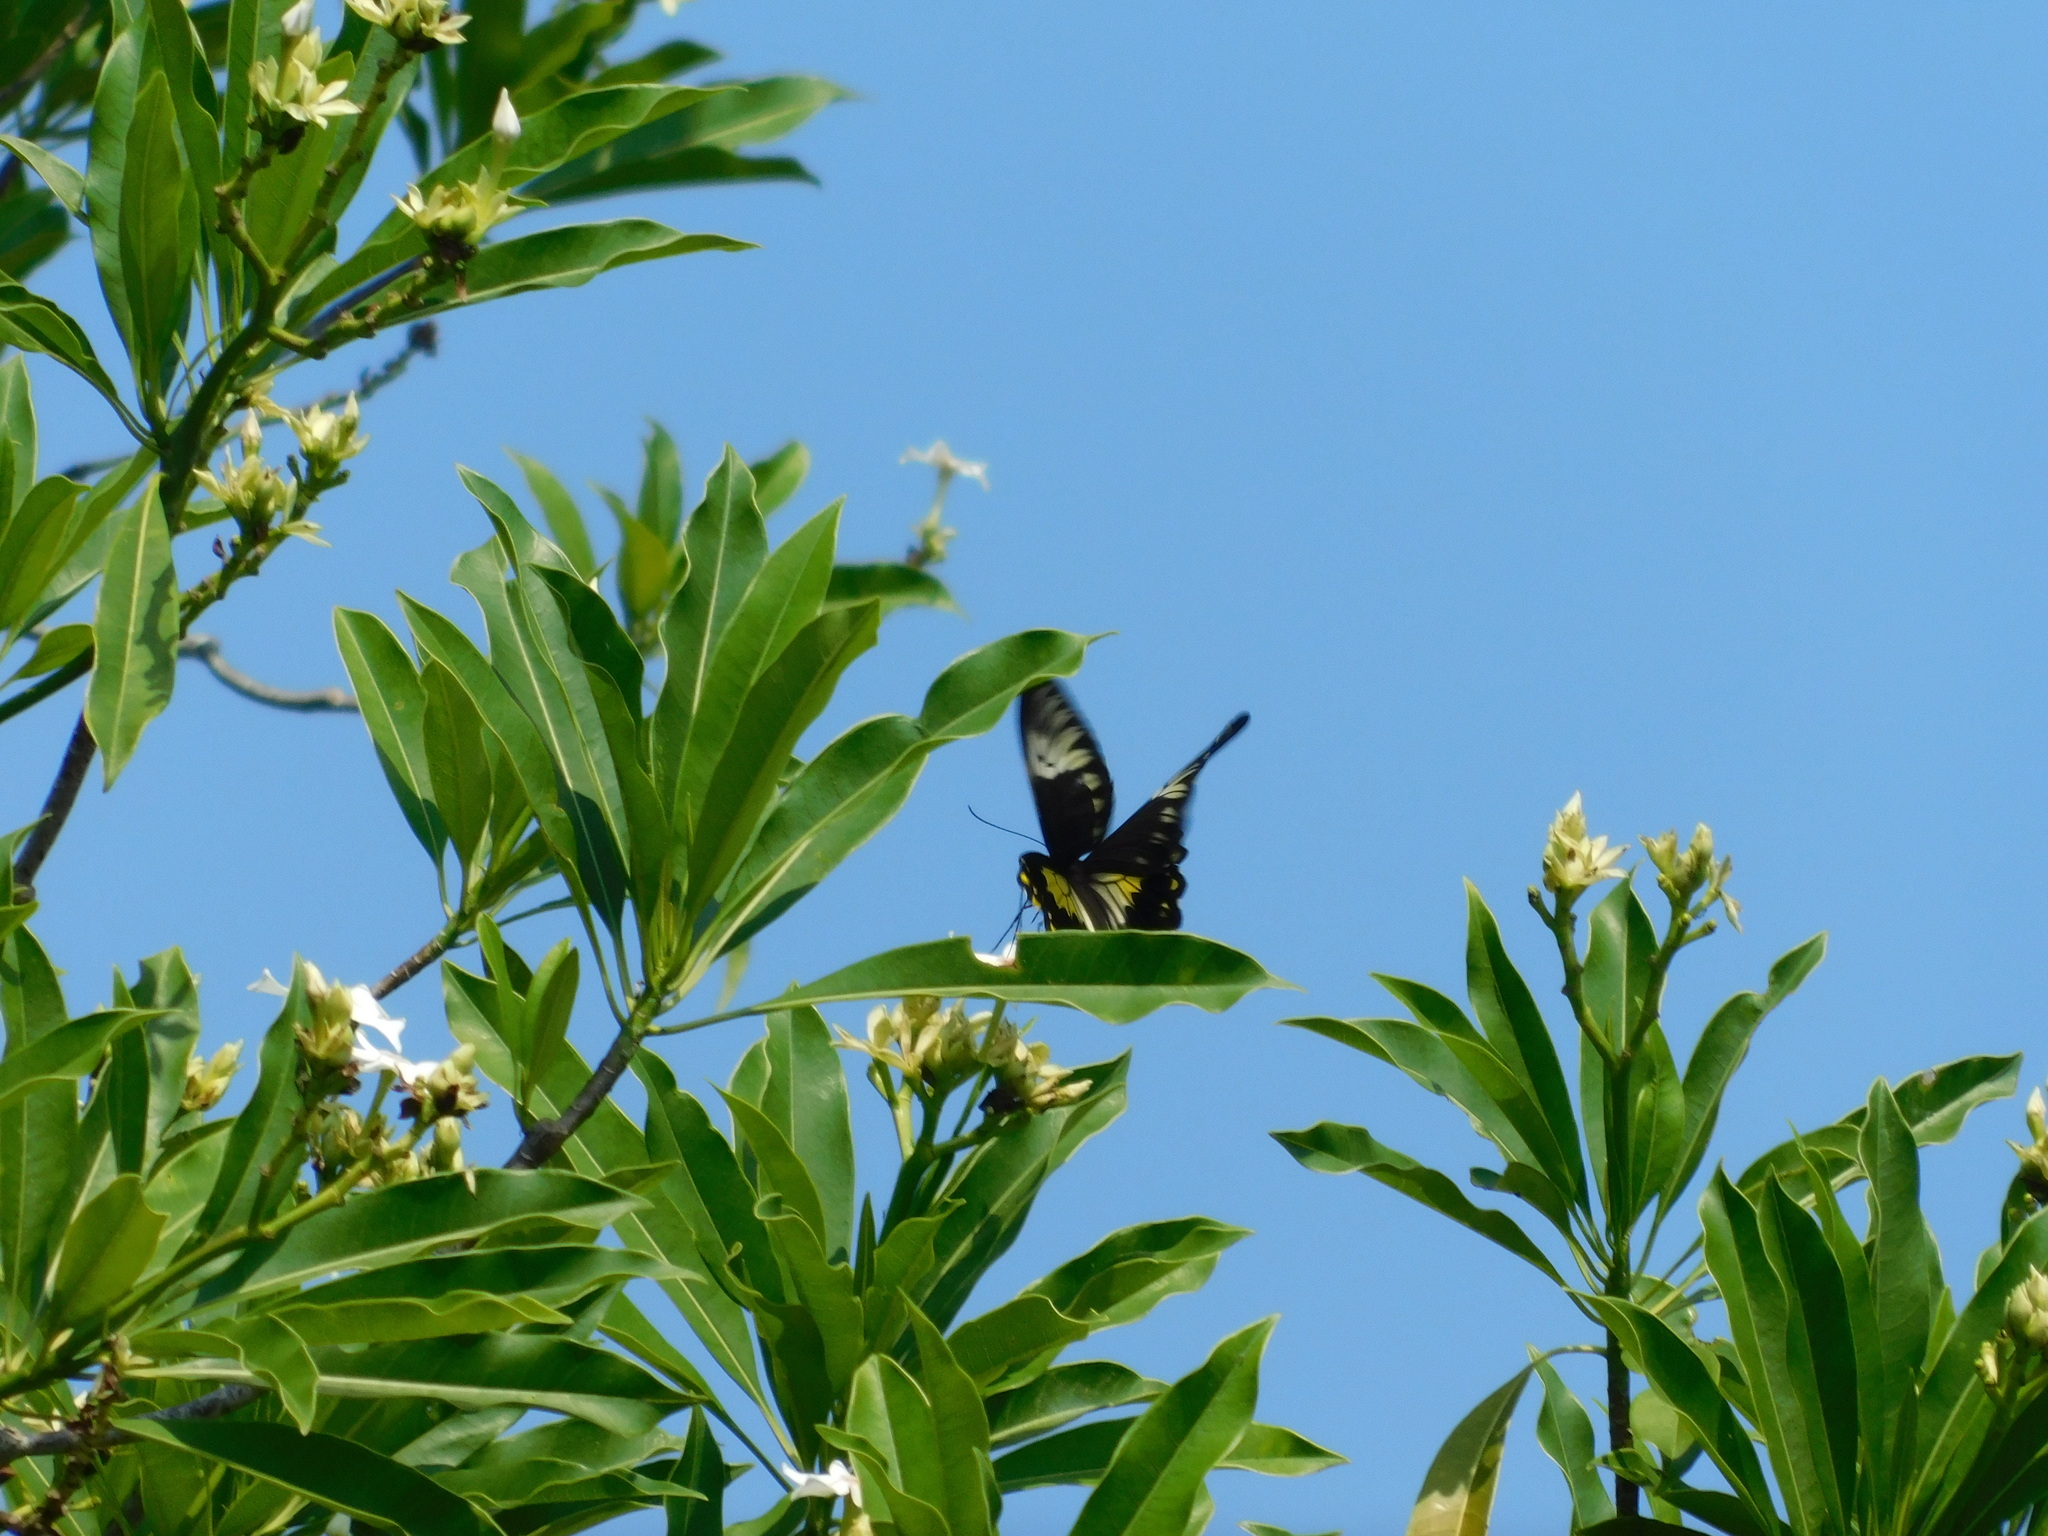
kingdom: Animalia
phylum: Arthropoda
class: Insecta
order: Lepidoptera
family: Papilionidae
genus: Troides
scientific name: Troides amphrysus
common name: Malay birdwing
